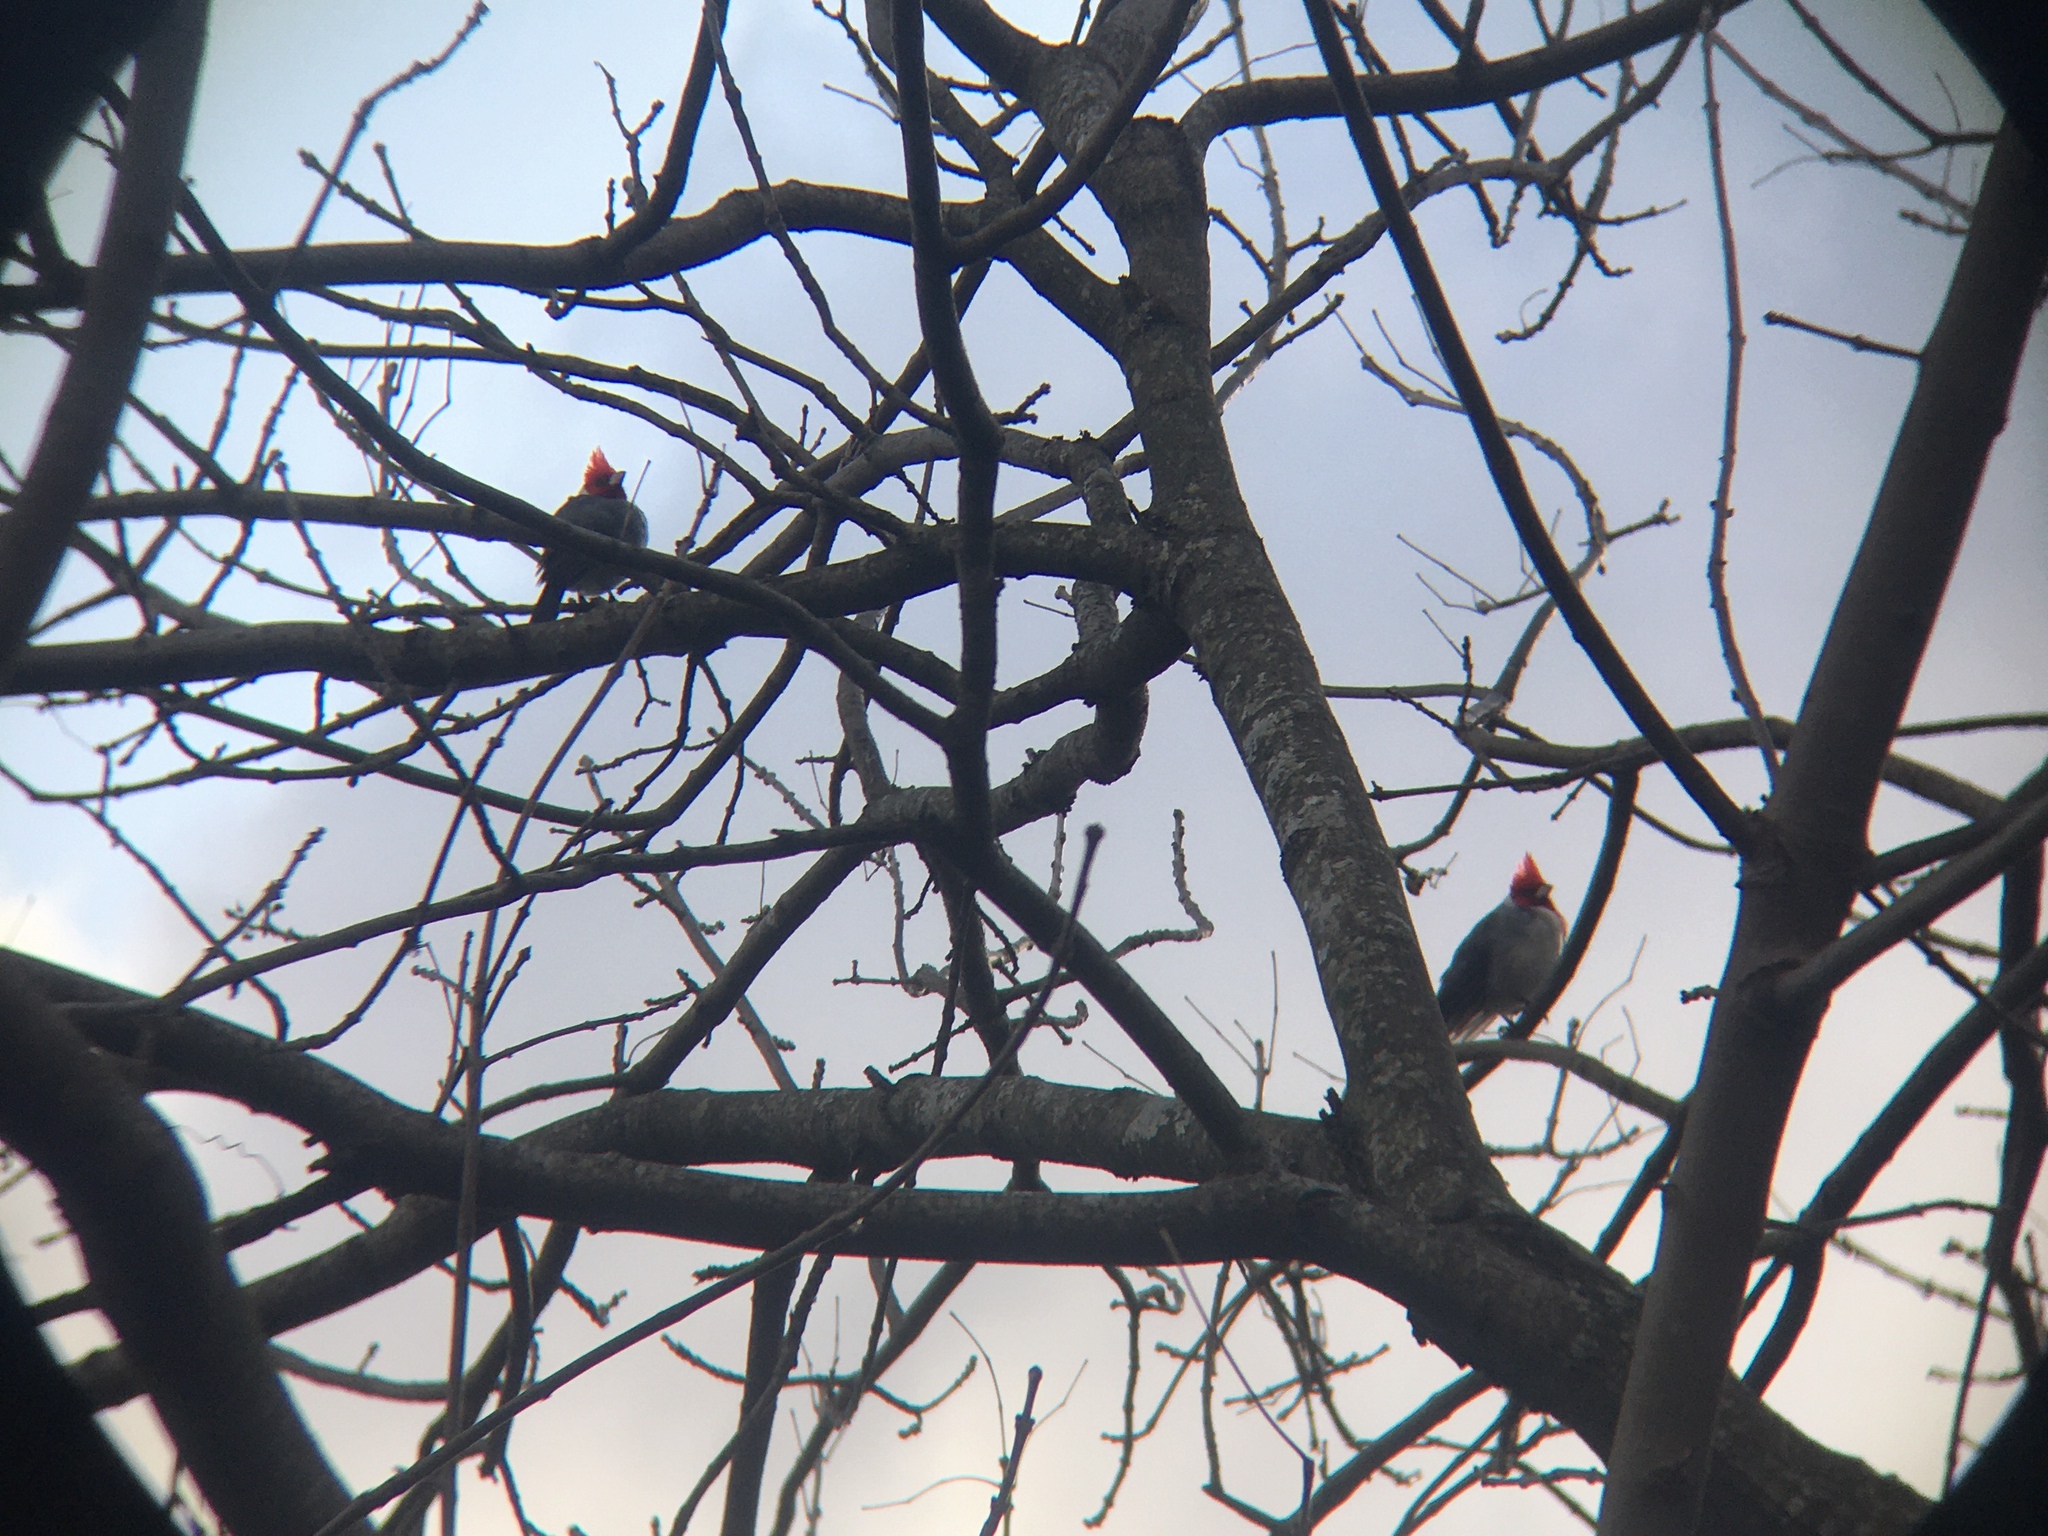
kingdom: Animalia
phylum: Chordata
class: Aves
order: Passeriformes
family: Thraupidae
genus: Paroaria
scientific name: Paroaria coronata
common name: Red-crested cardinal
